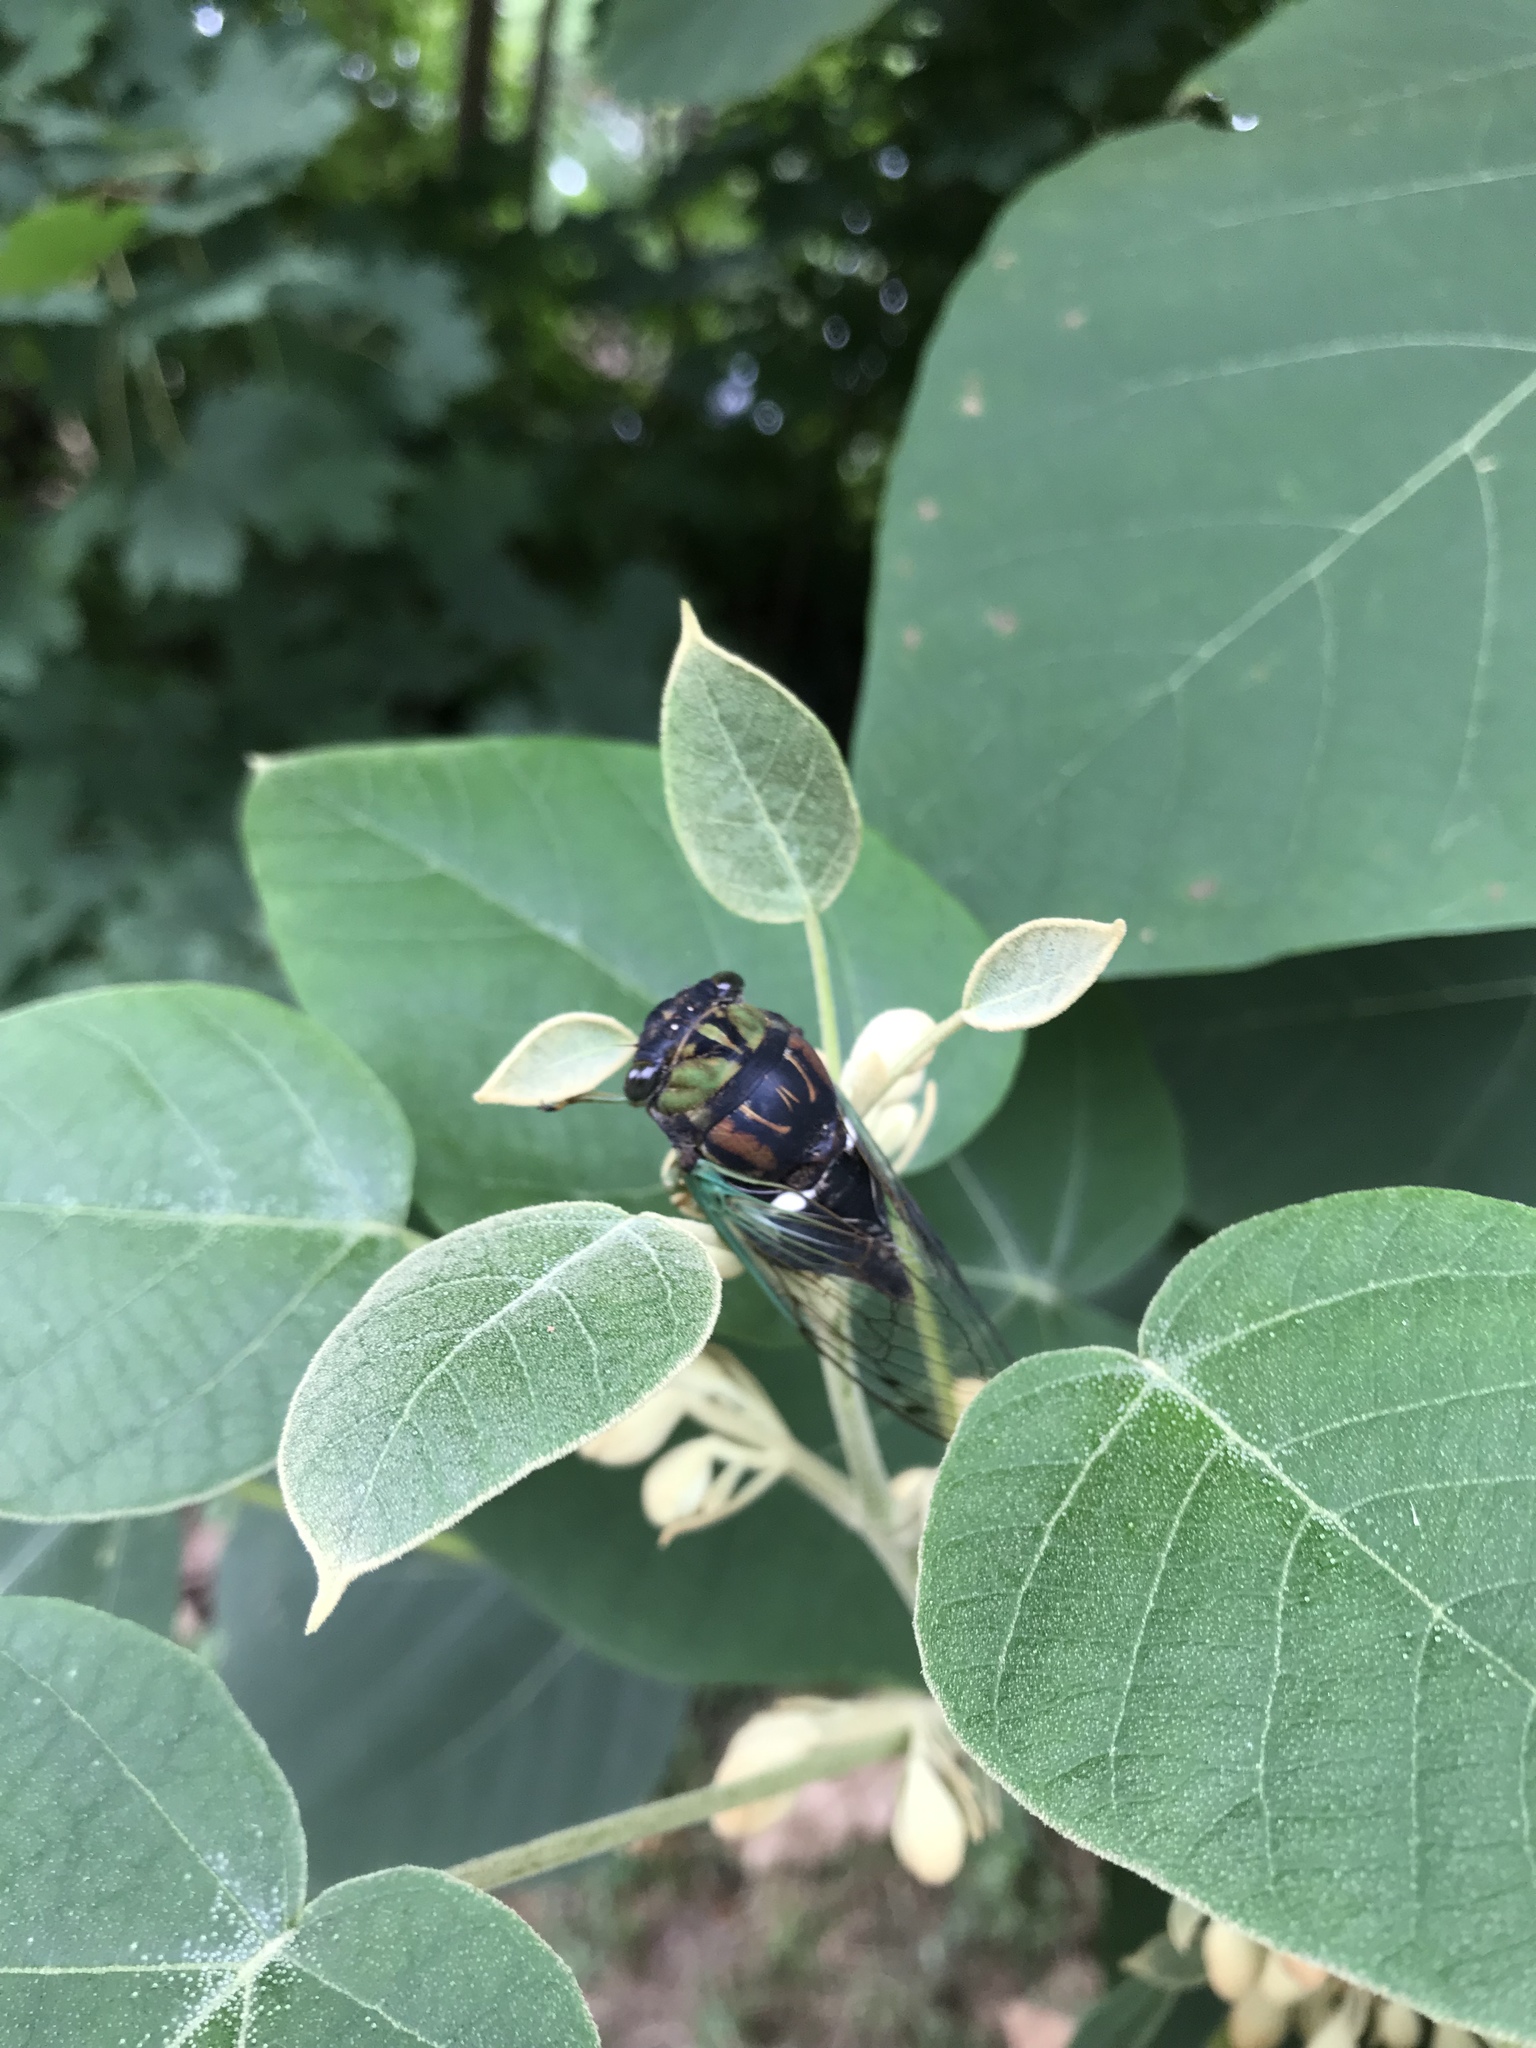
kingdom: Animalia
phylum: Arthropoda
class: Insecta
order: Hemiptera
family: Cicadidae
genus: Neotibicen
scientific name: Neotibicen tibicen
